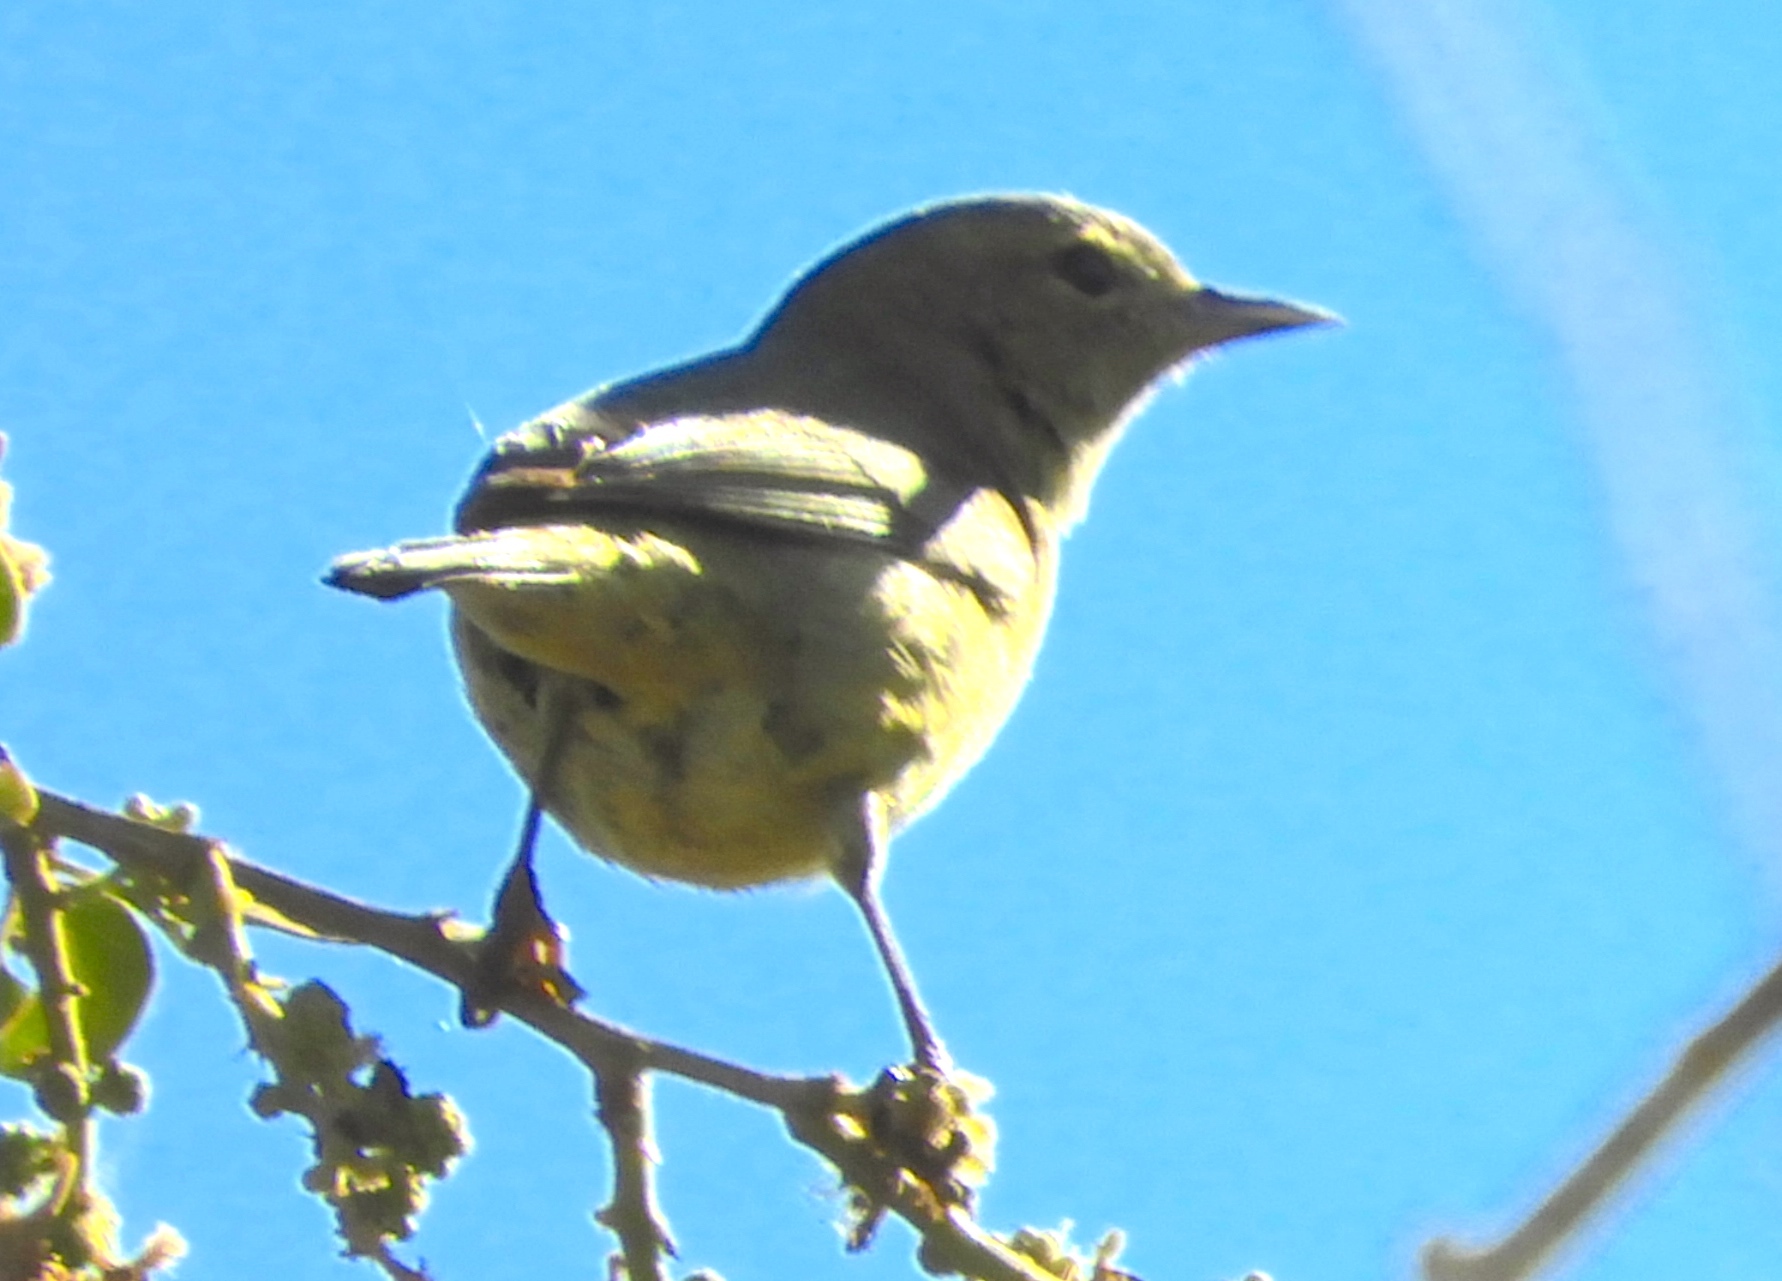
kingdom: Animalia
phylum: Chordata
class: Aves
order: Passeriformes
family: Parulidae
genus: Leiothlypis
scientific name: Leiothlypis celata
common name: Orange-crowned warbler
